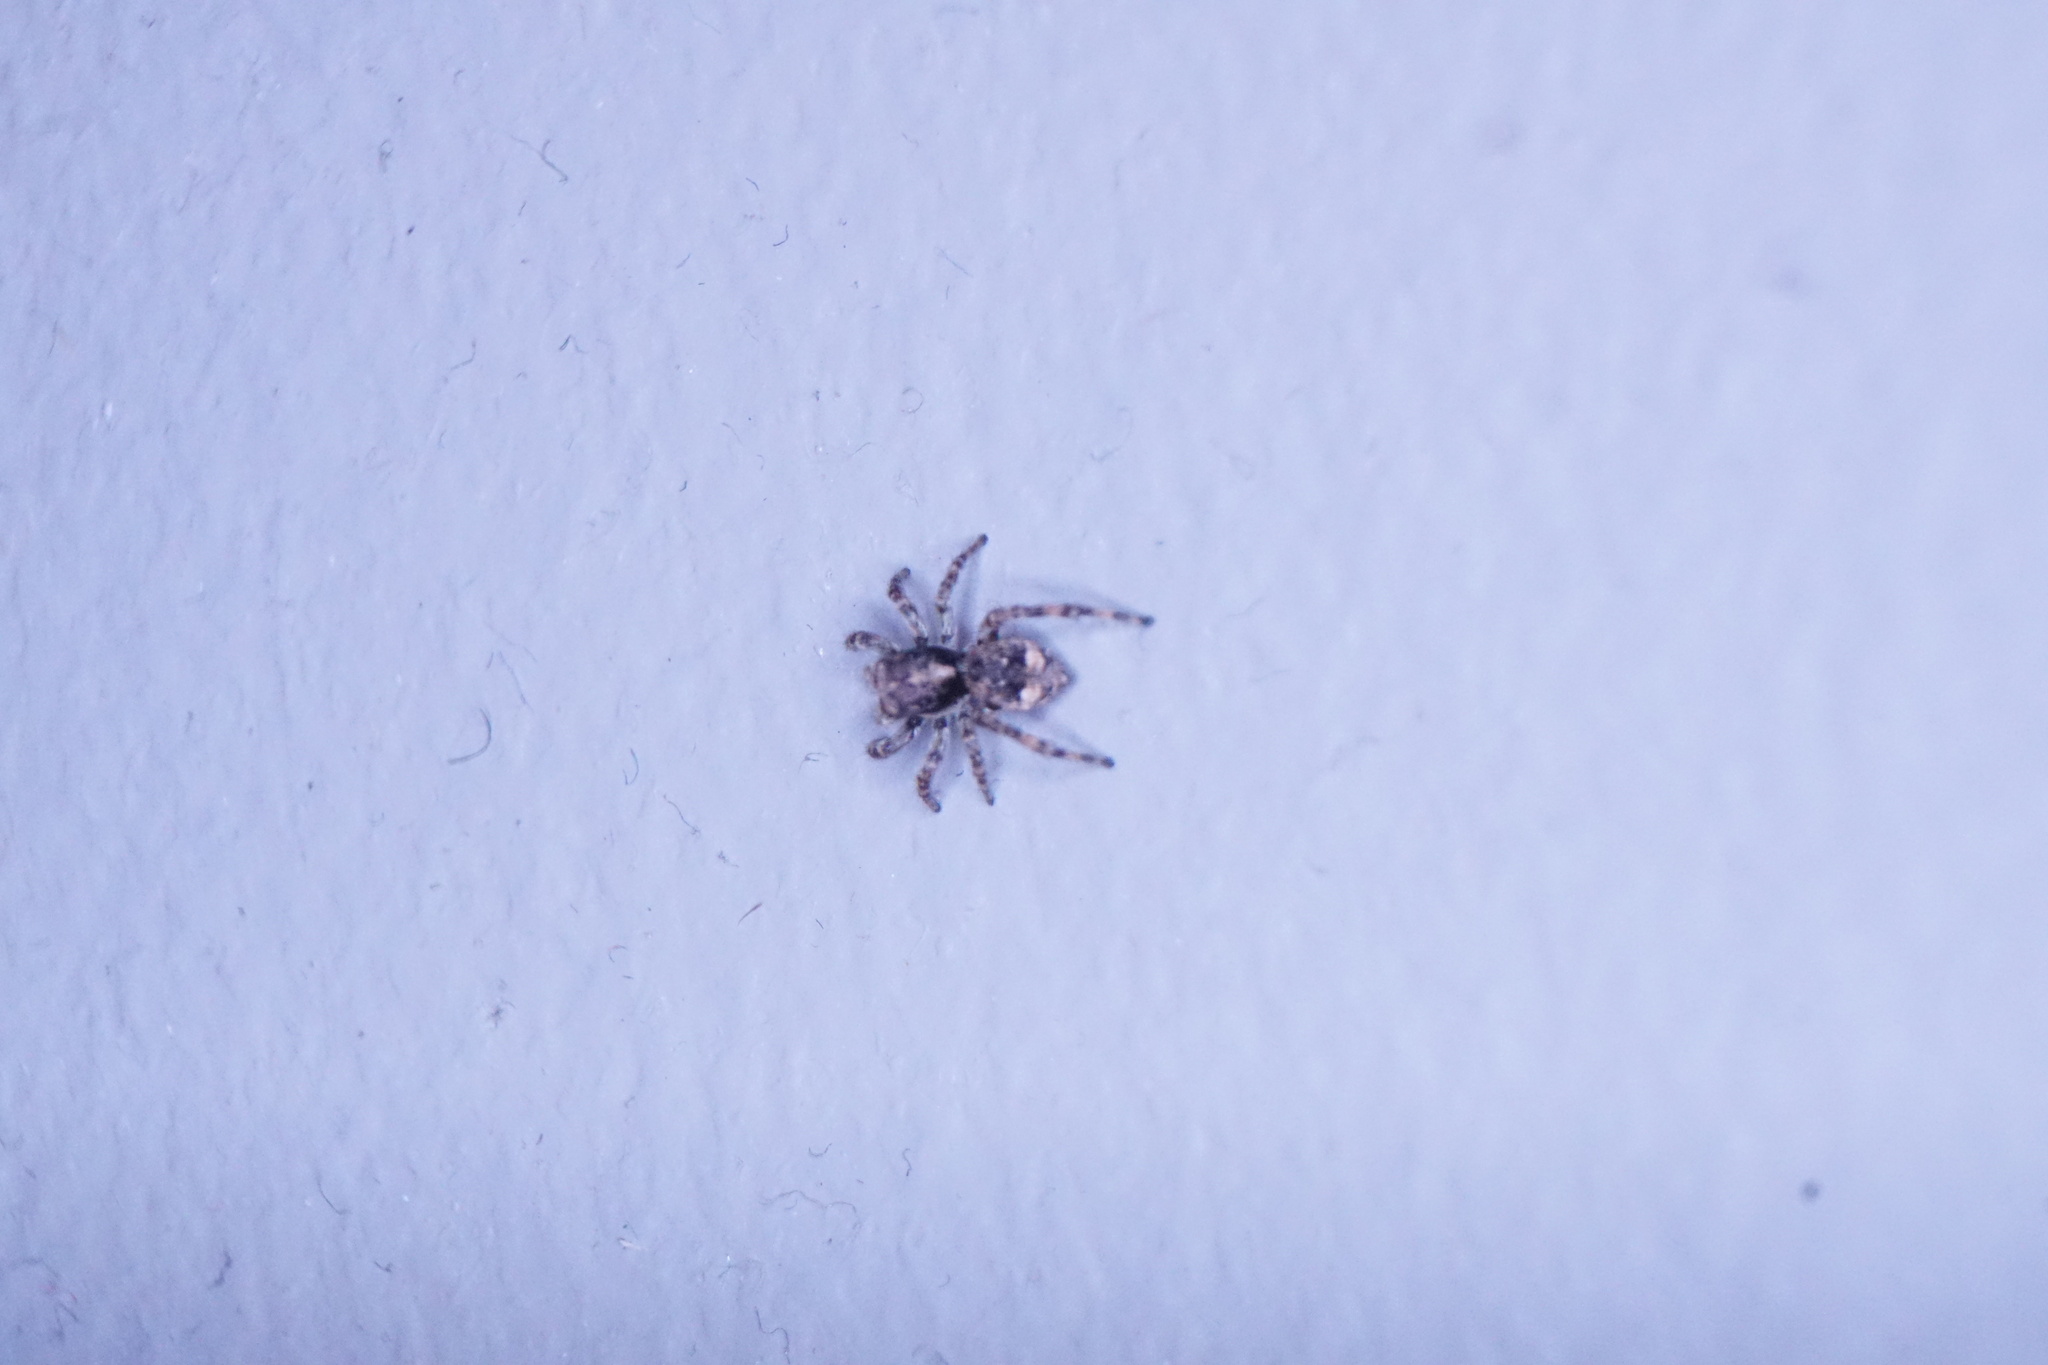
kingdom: Animalia
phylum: Arthropoda
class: Arachnida
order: Araneae
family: Salticidae
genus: Attulus
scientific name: Attulus fasciger
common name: Asiatic wall jumping spider
